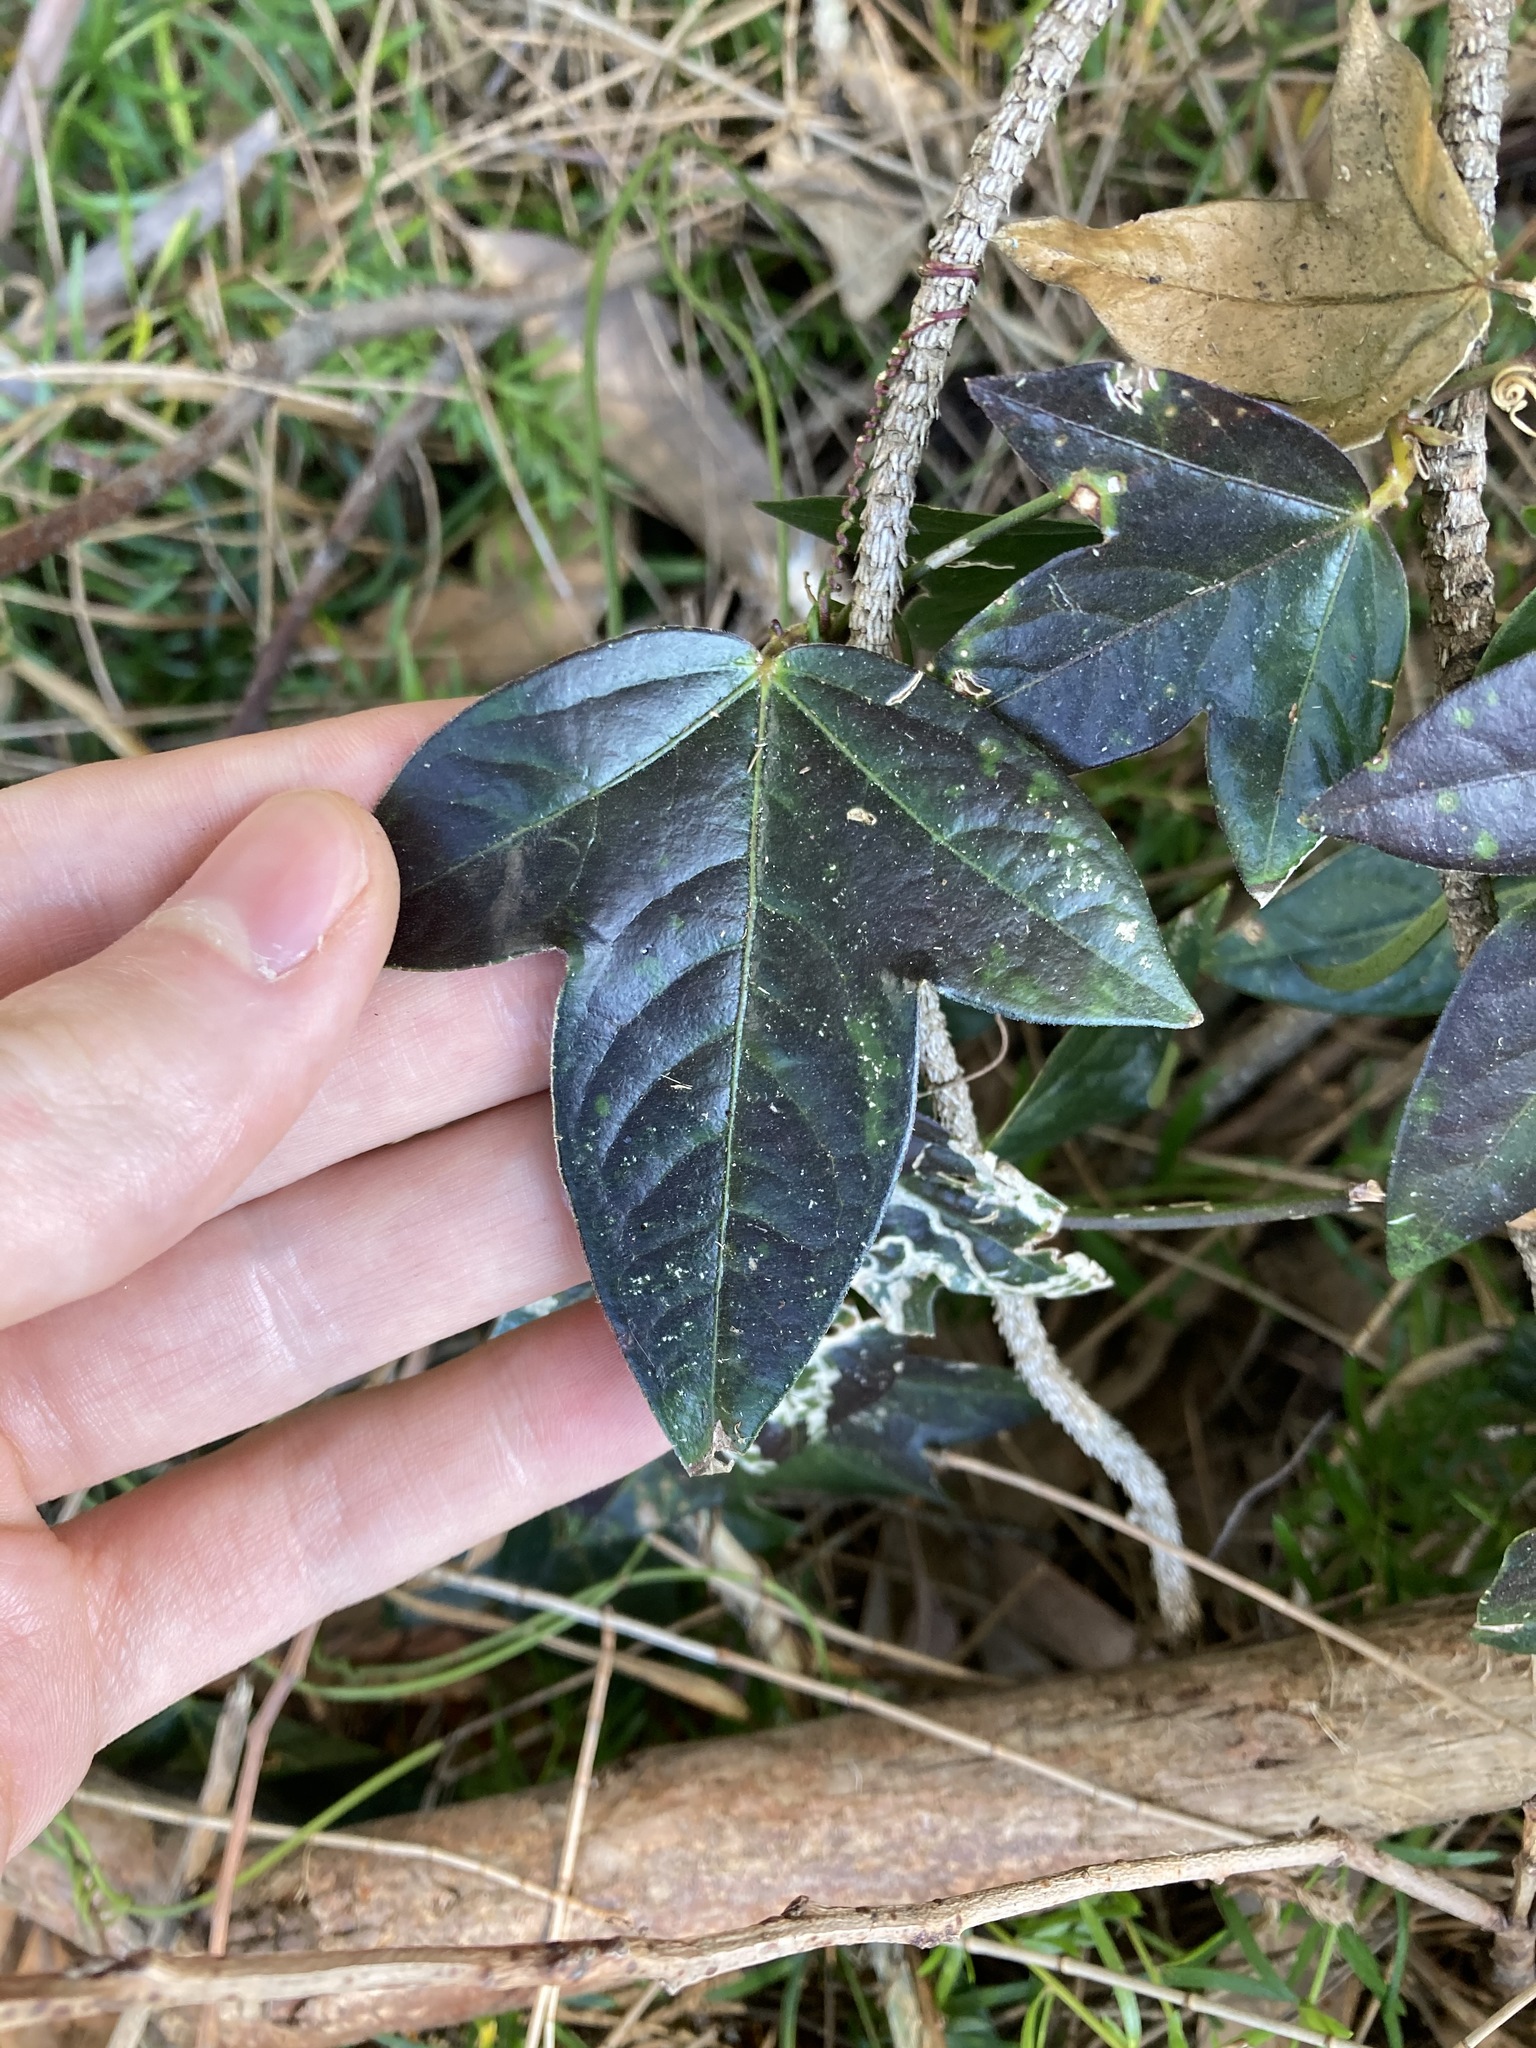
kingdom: Plantae
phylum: Tracheophyta
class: Magnoliopsida
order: Malpighiales
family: Passifloraceae
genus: Passiflora
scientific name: Passiflora suberosa
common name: Wild passionfruit
